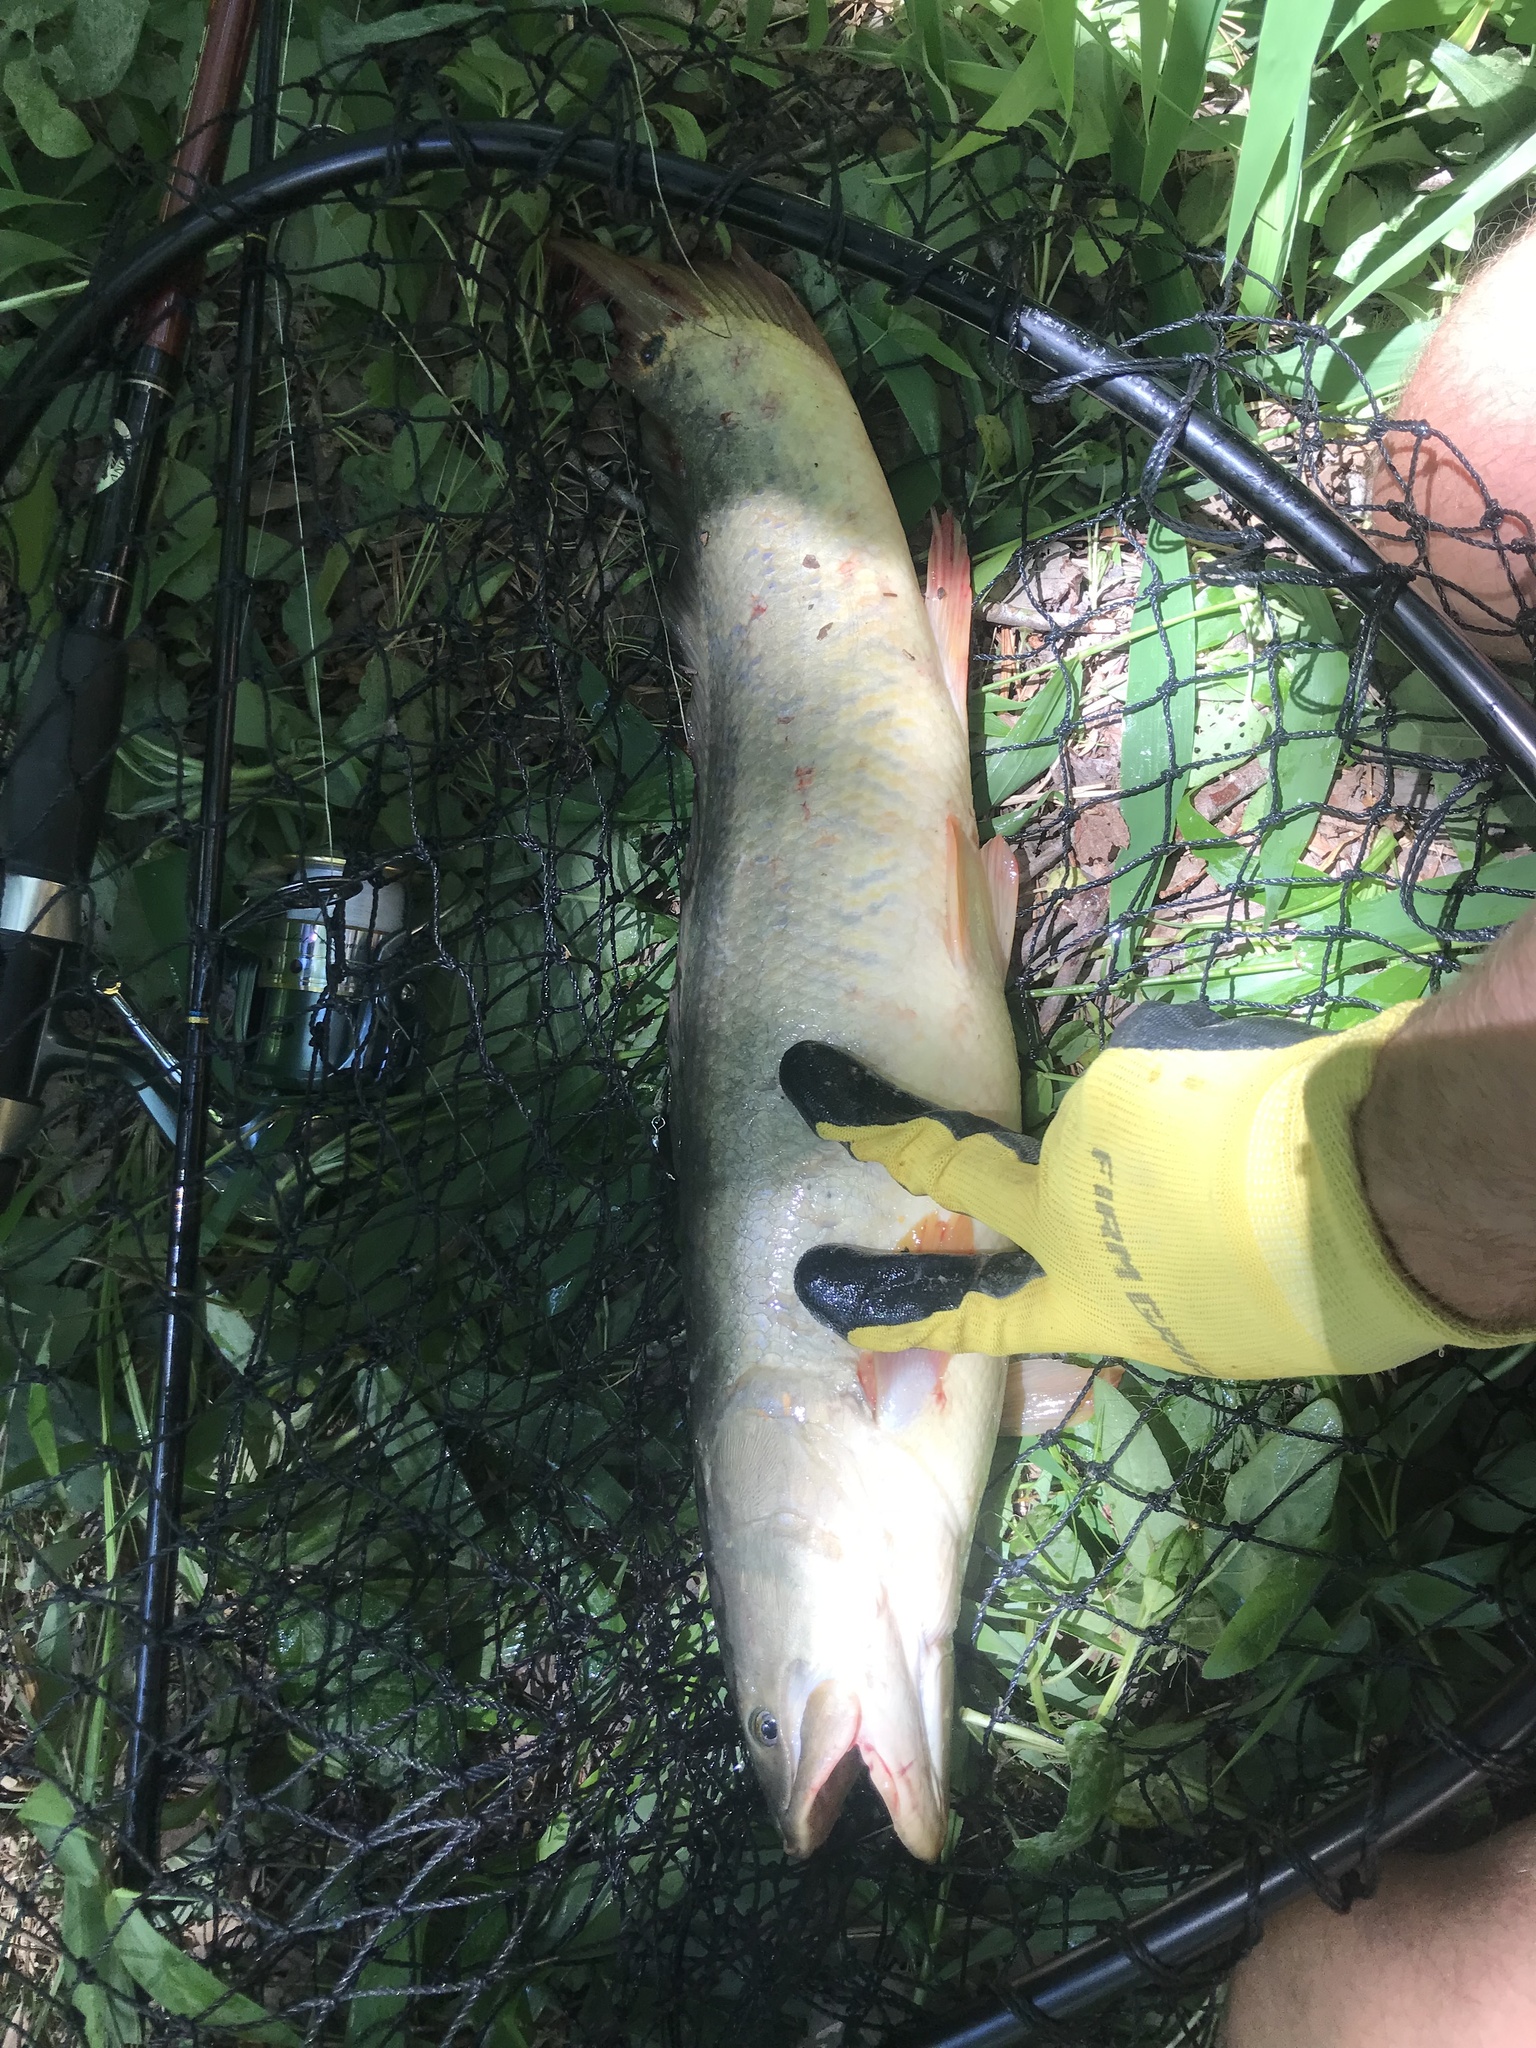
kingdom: Animalia
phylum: Chordata
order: Amiiformes
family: Amiidae
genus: Amia
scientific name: Amia calva
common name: Bowfin
